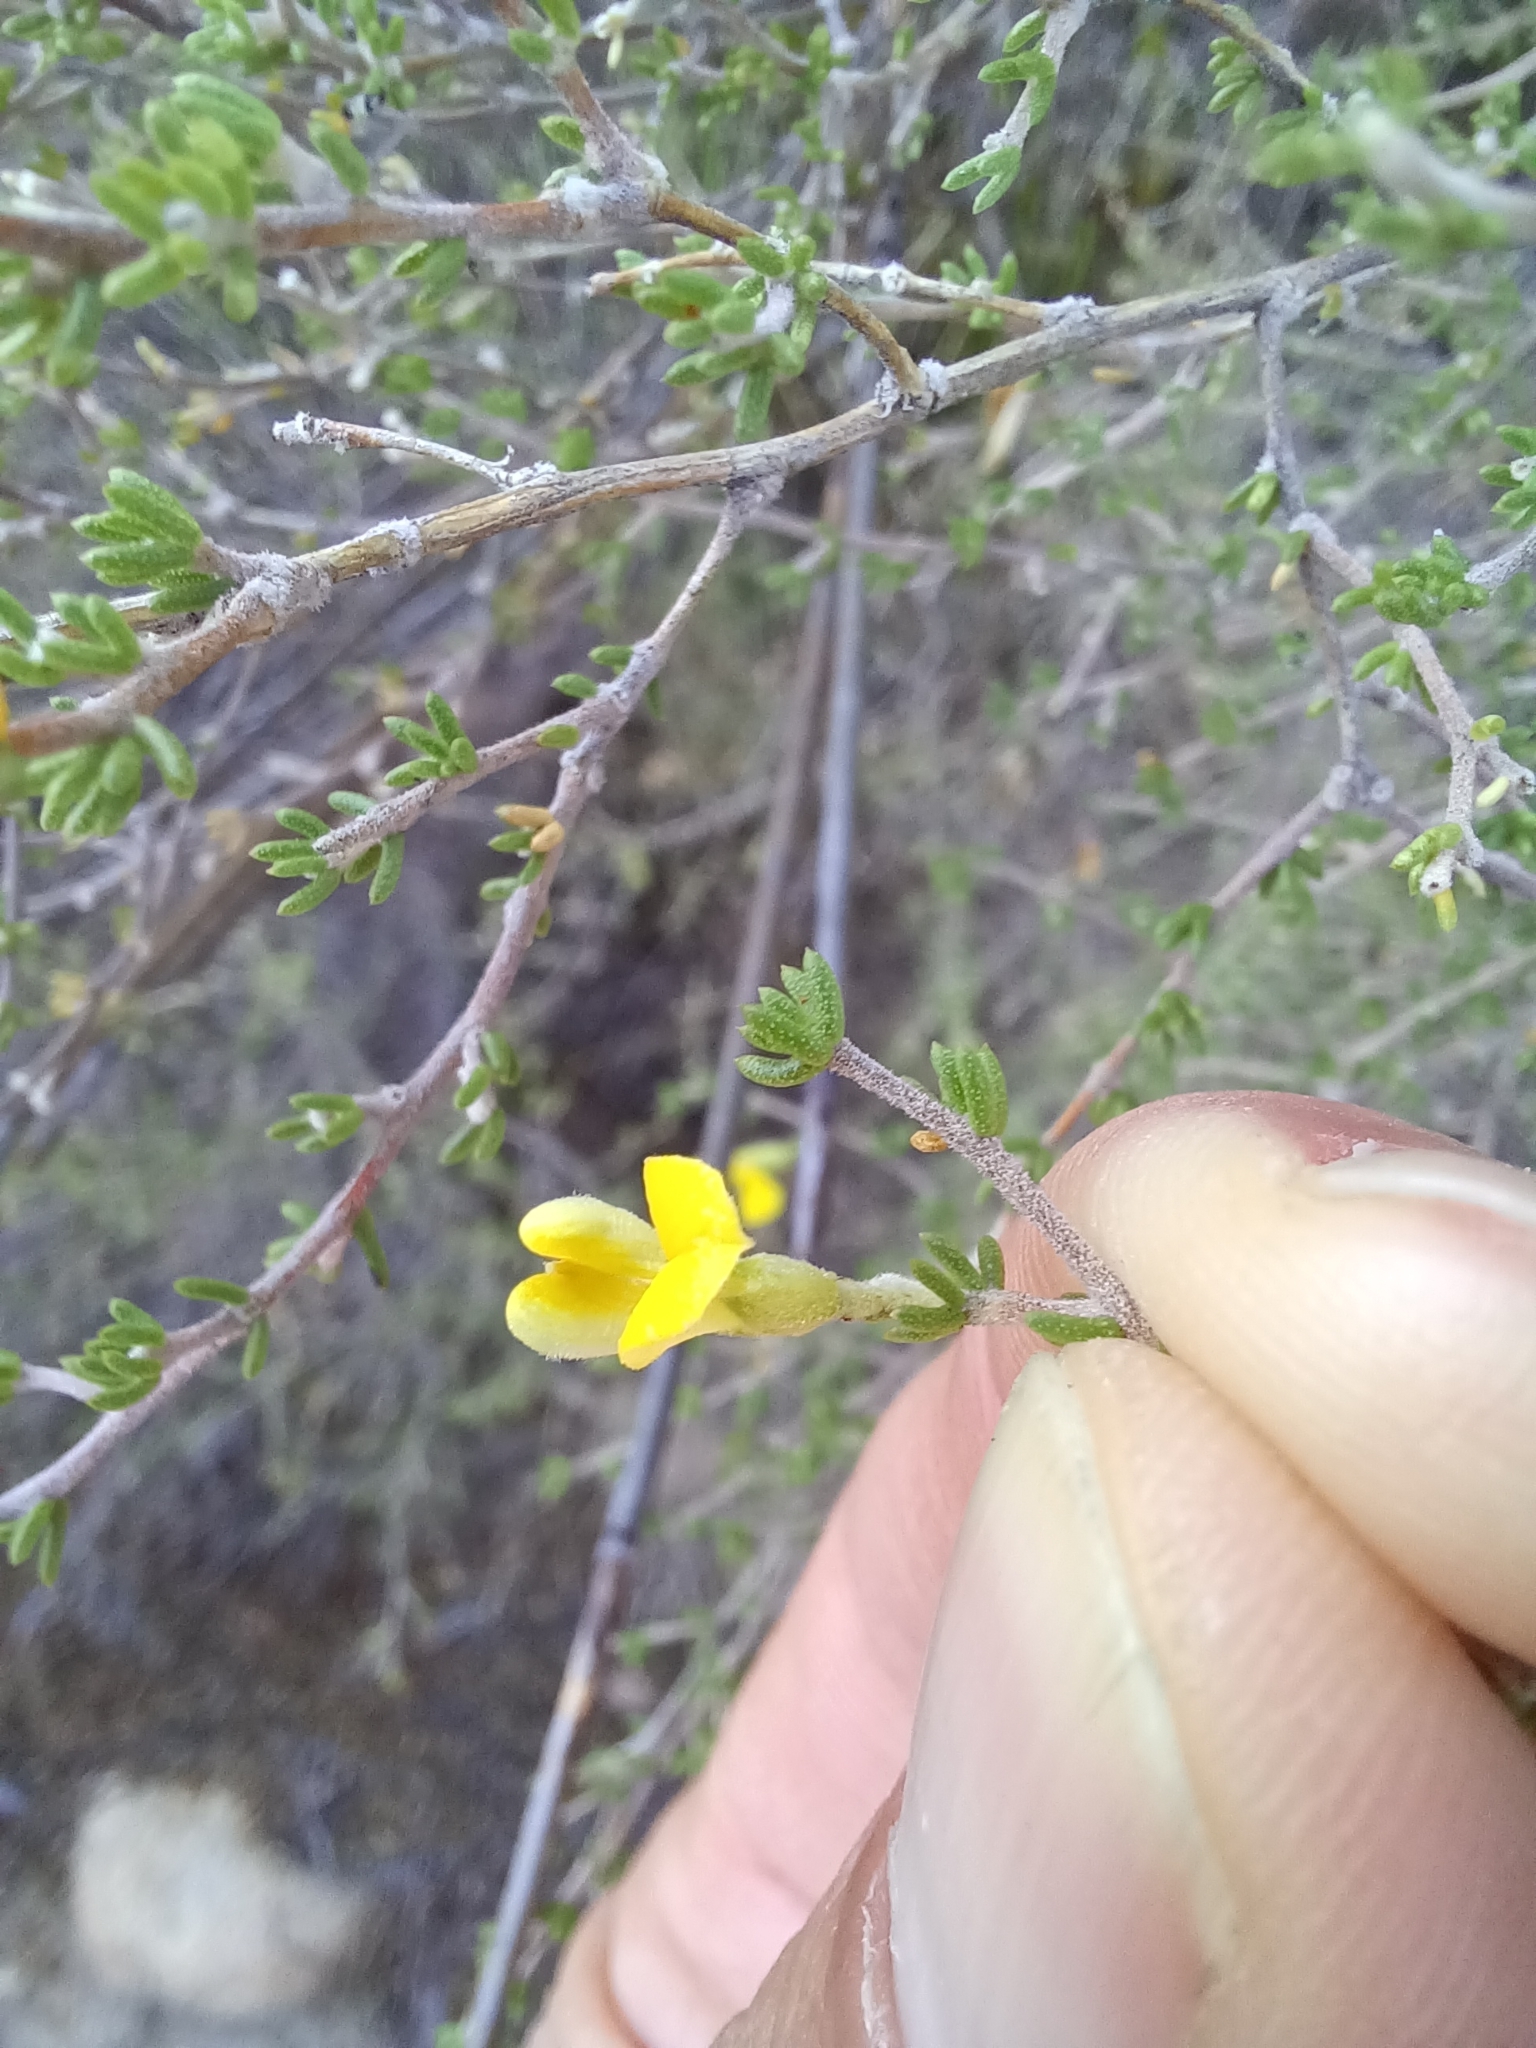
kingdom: Plantae
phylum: Tracheophyta
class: Magnoliopsida
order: Fabales
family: Fabaceae
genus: Aspalathus
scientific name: Aspalathus pilantha
